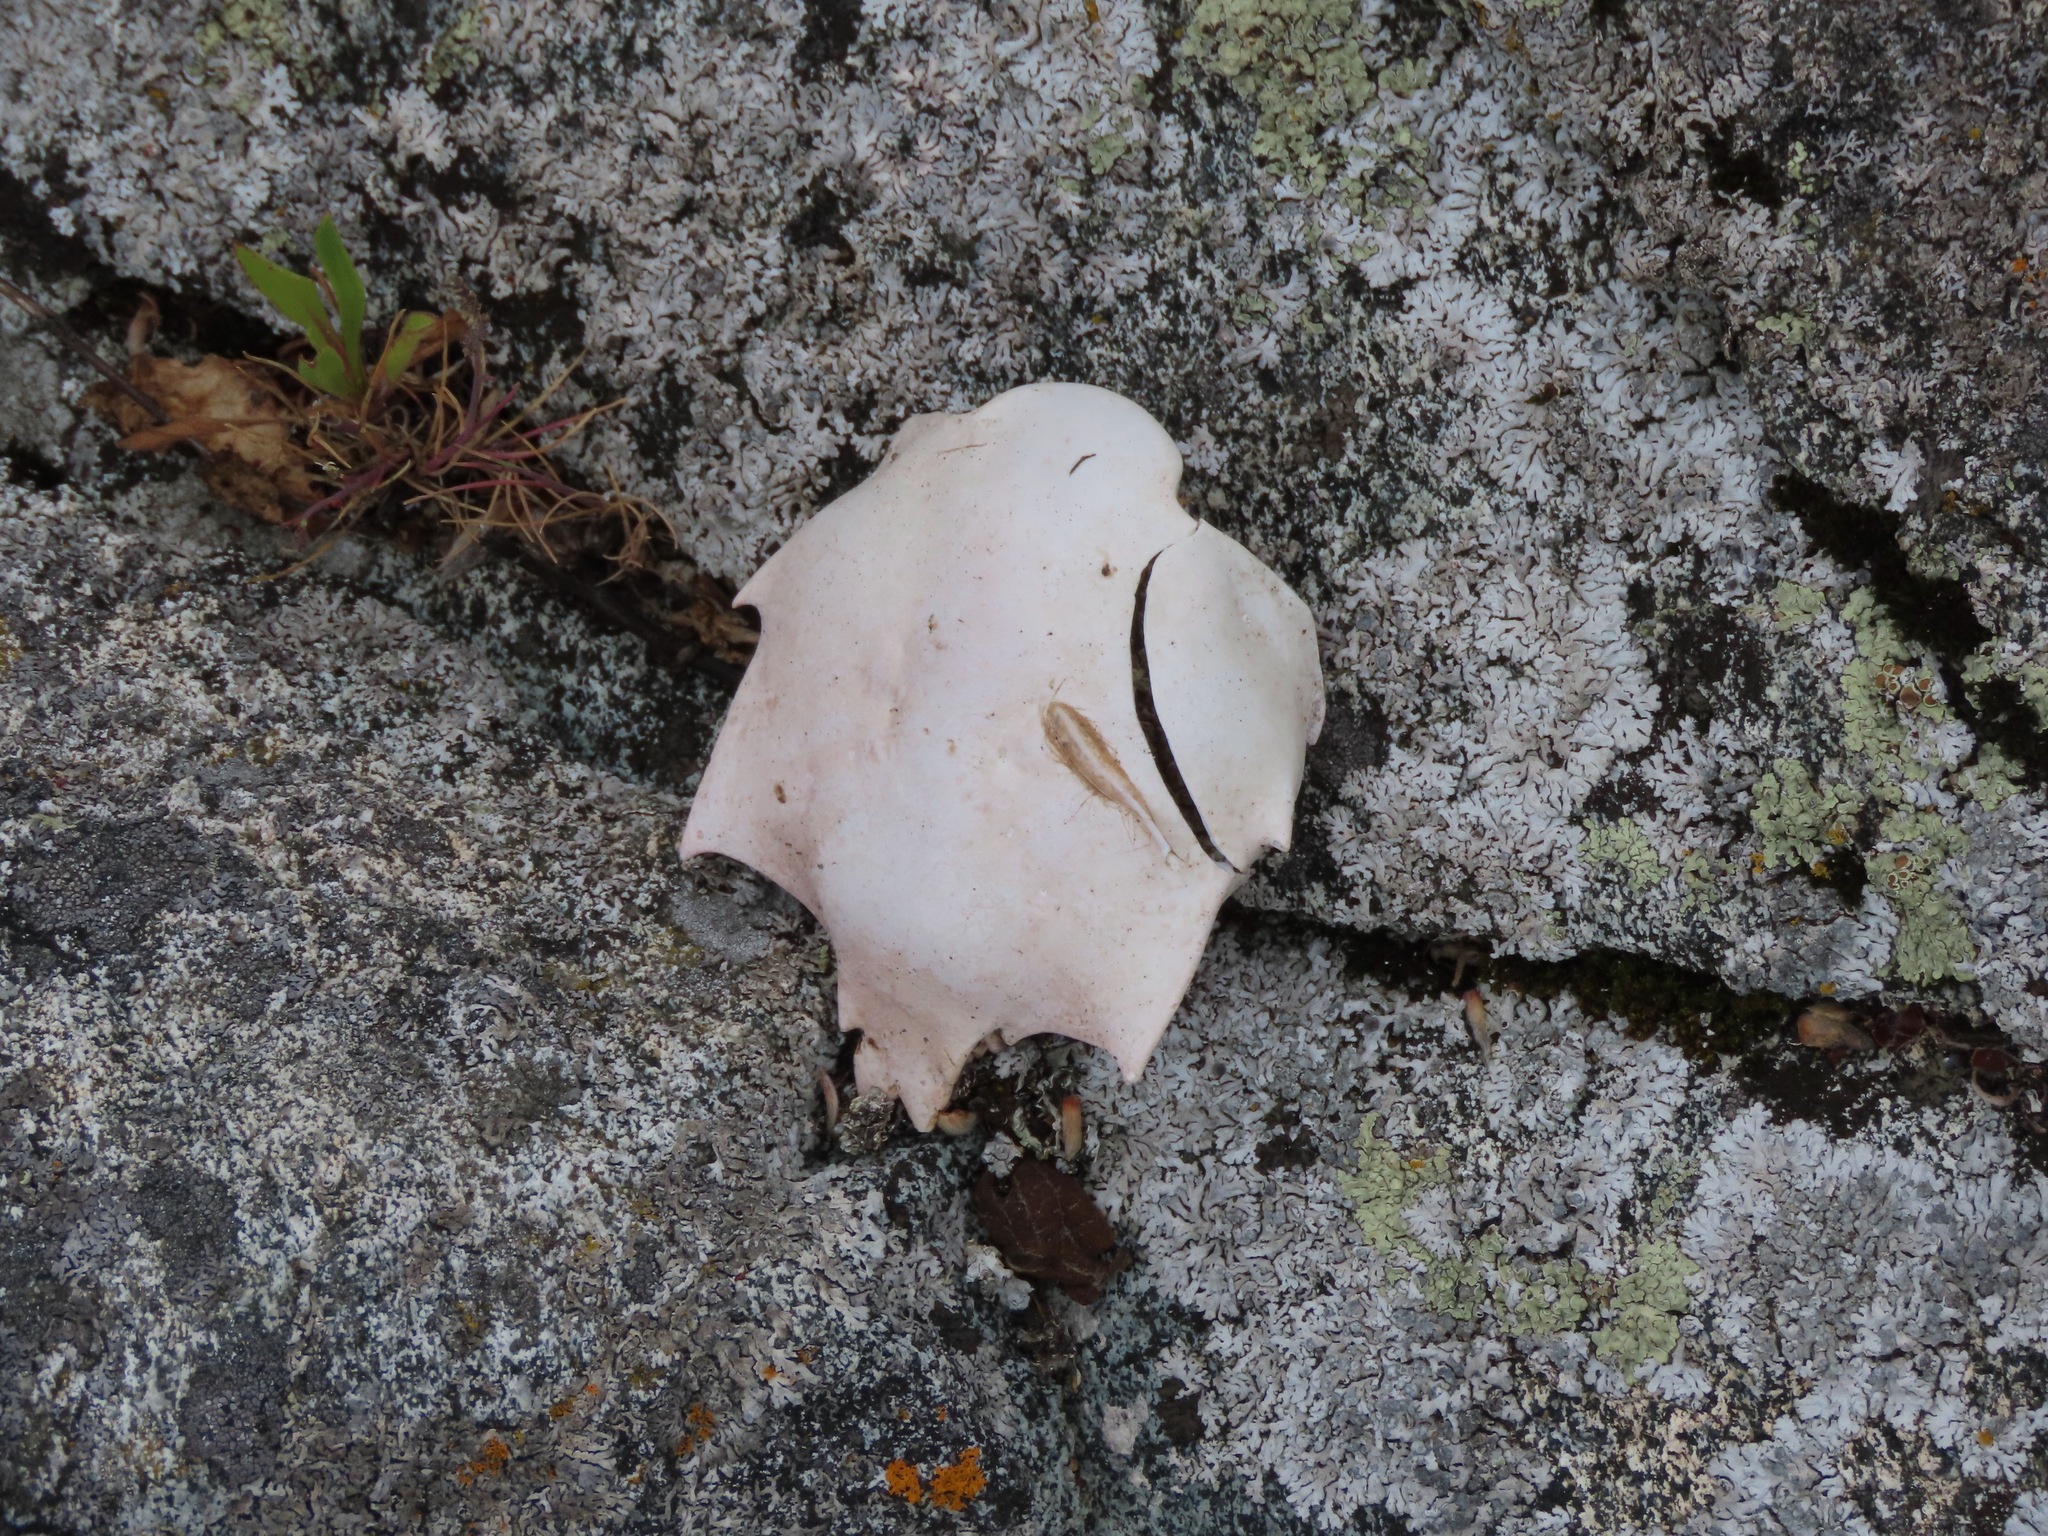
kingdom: Animalia
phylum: Arthropoda
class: Malacostraca
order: Decapoda
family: Epialtidae
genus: Pugettia
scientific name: Pugettia producta
